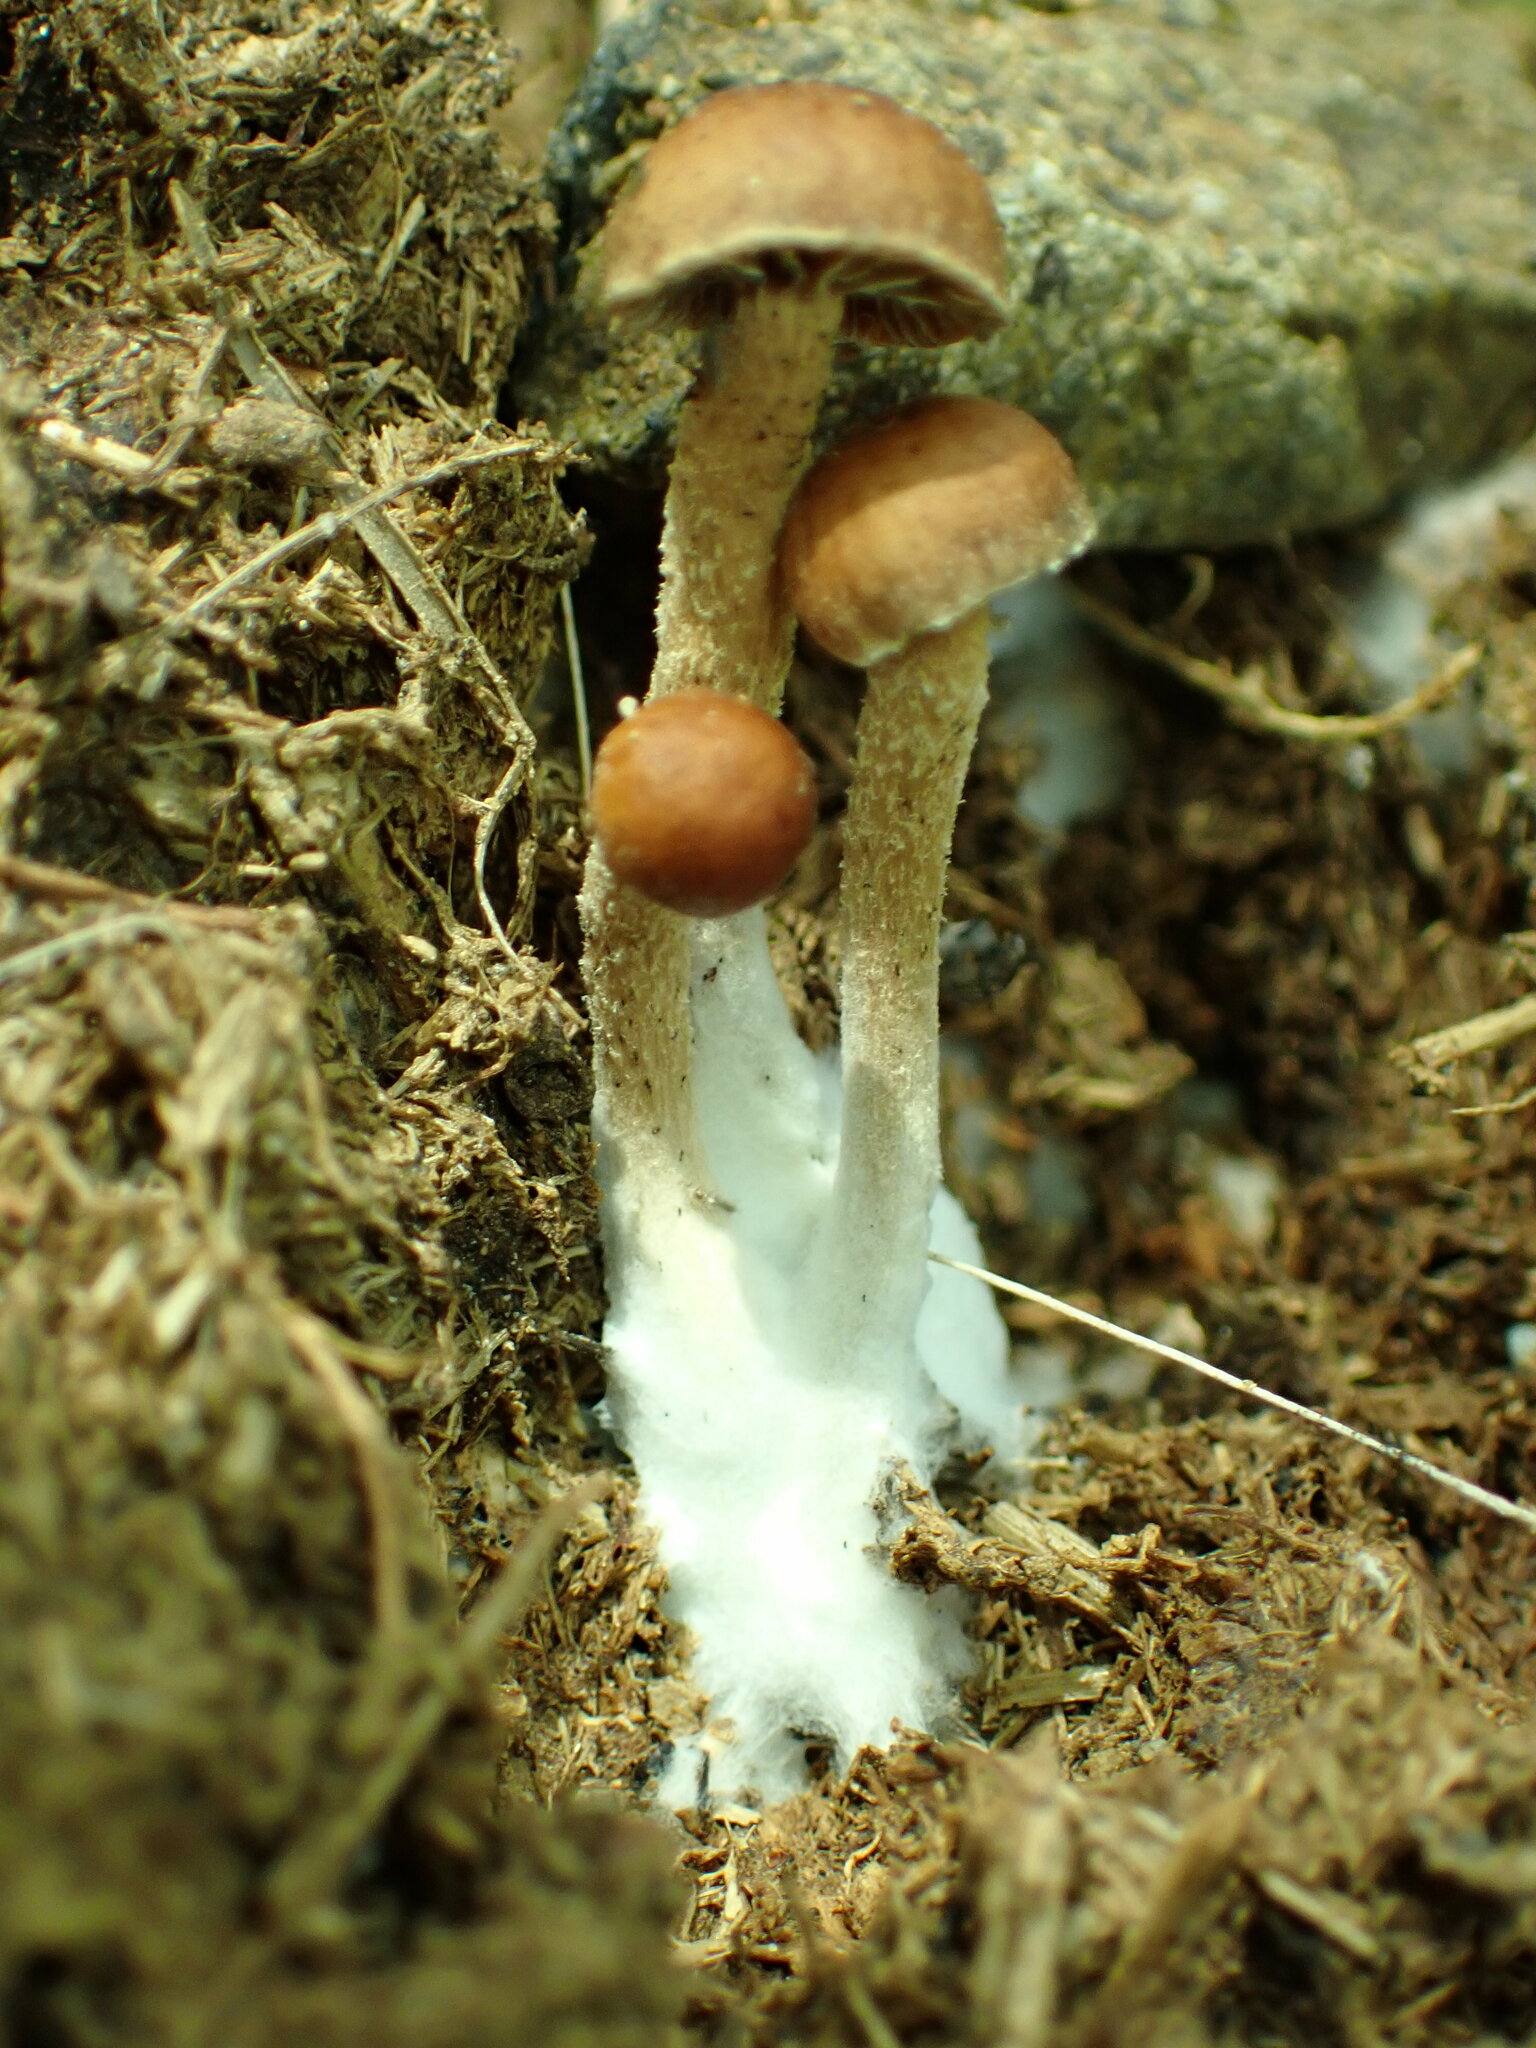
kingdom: Fungi
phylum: Basidiomycota
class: Agaricomycetes
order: Agaricales
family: Strophariaceae
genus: Deconica
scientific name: Deconica coprophila
